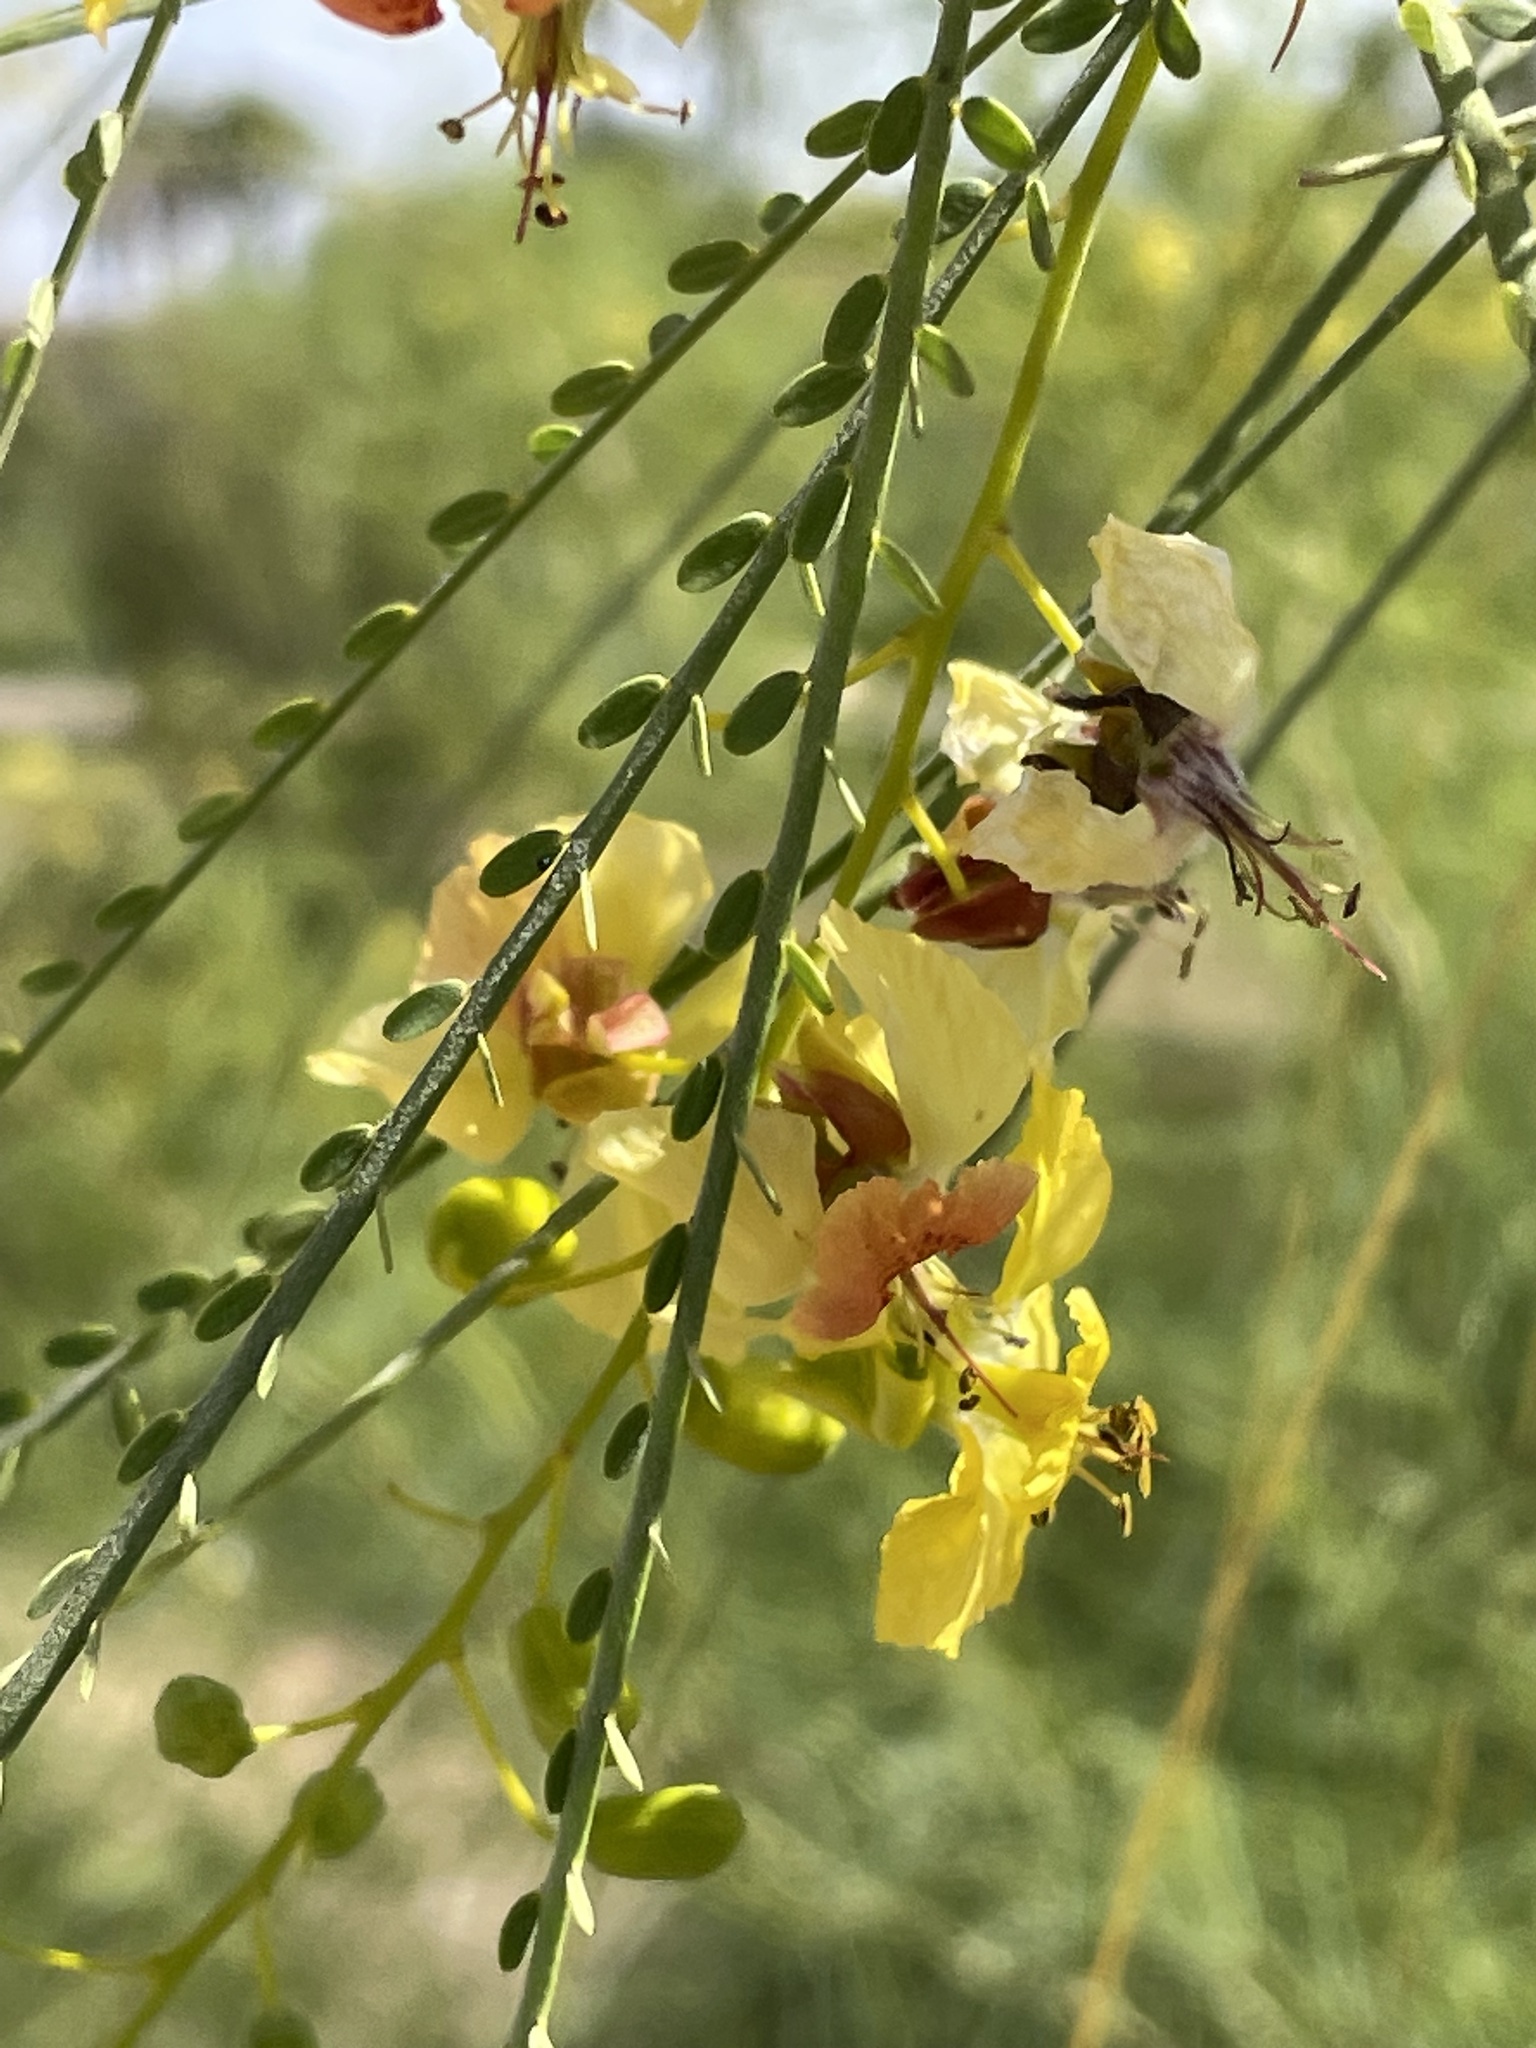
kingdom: Plantae
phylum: Tracheophyta
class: Magnoliopsida
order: Fabales
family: Fabaceae
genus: Parkinsonia
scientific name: Parkinsonia aculeata
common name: Jerusalem thorn
